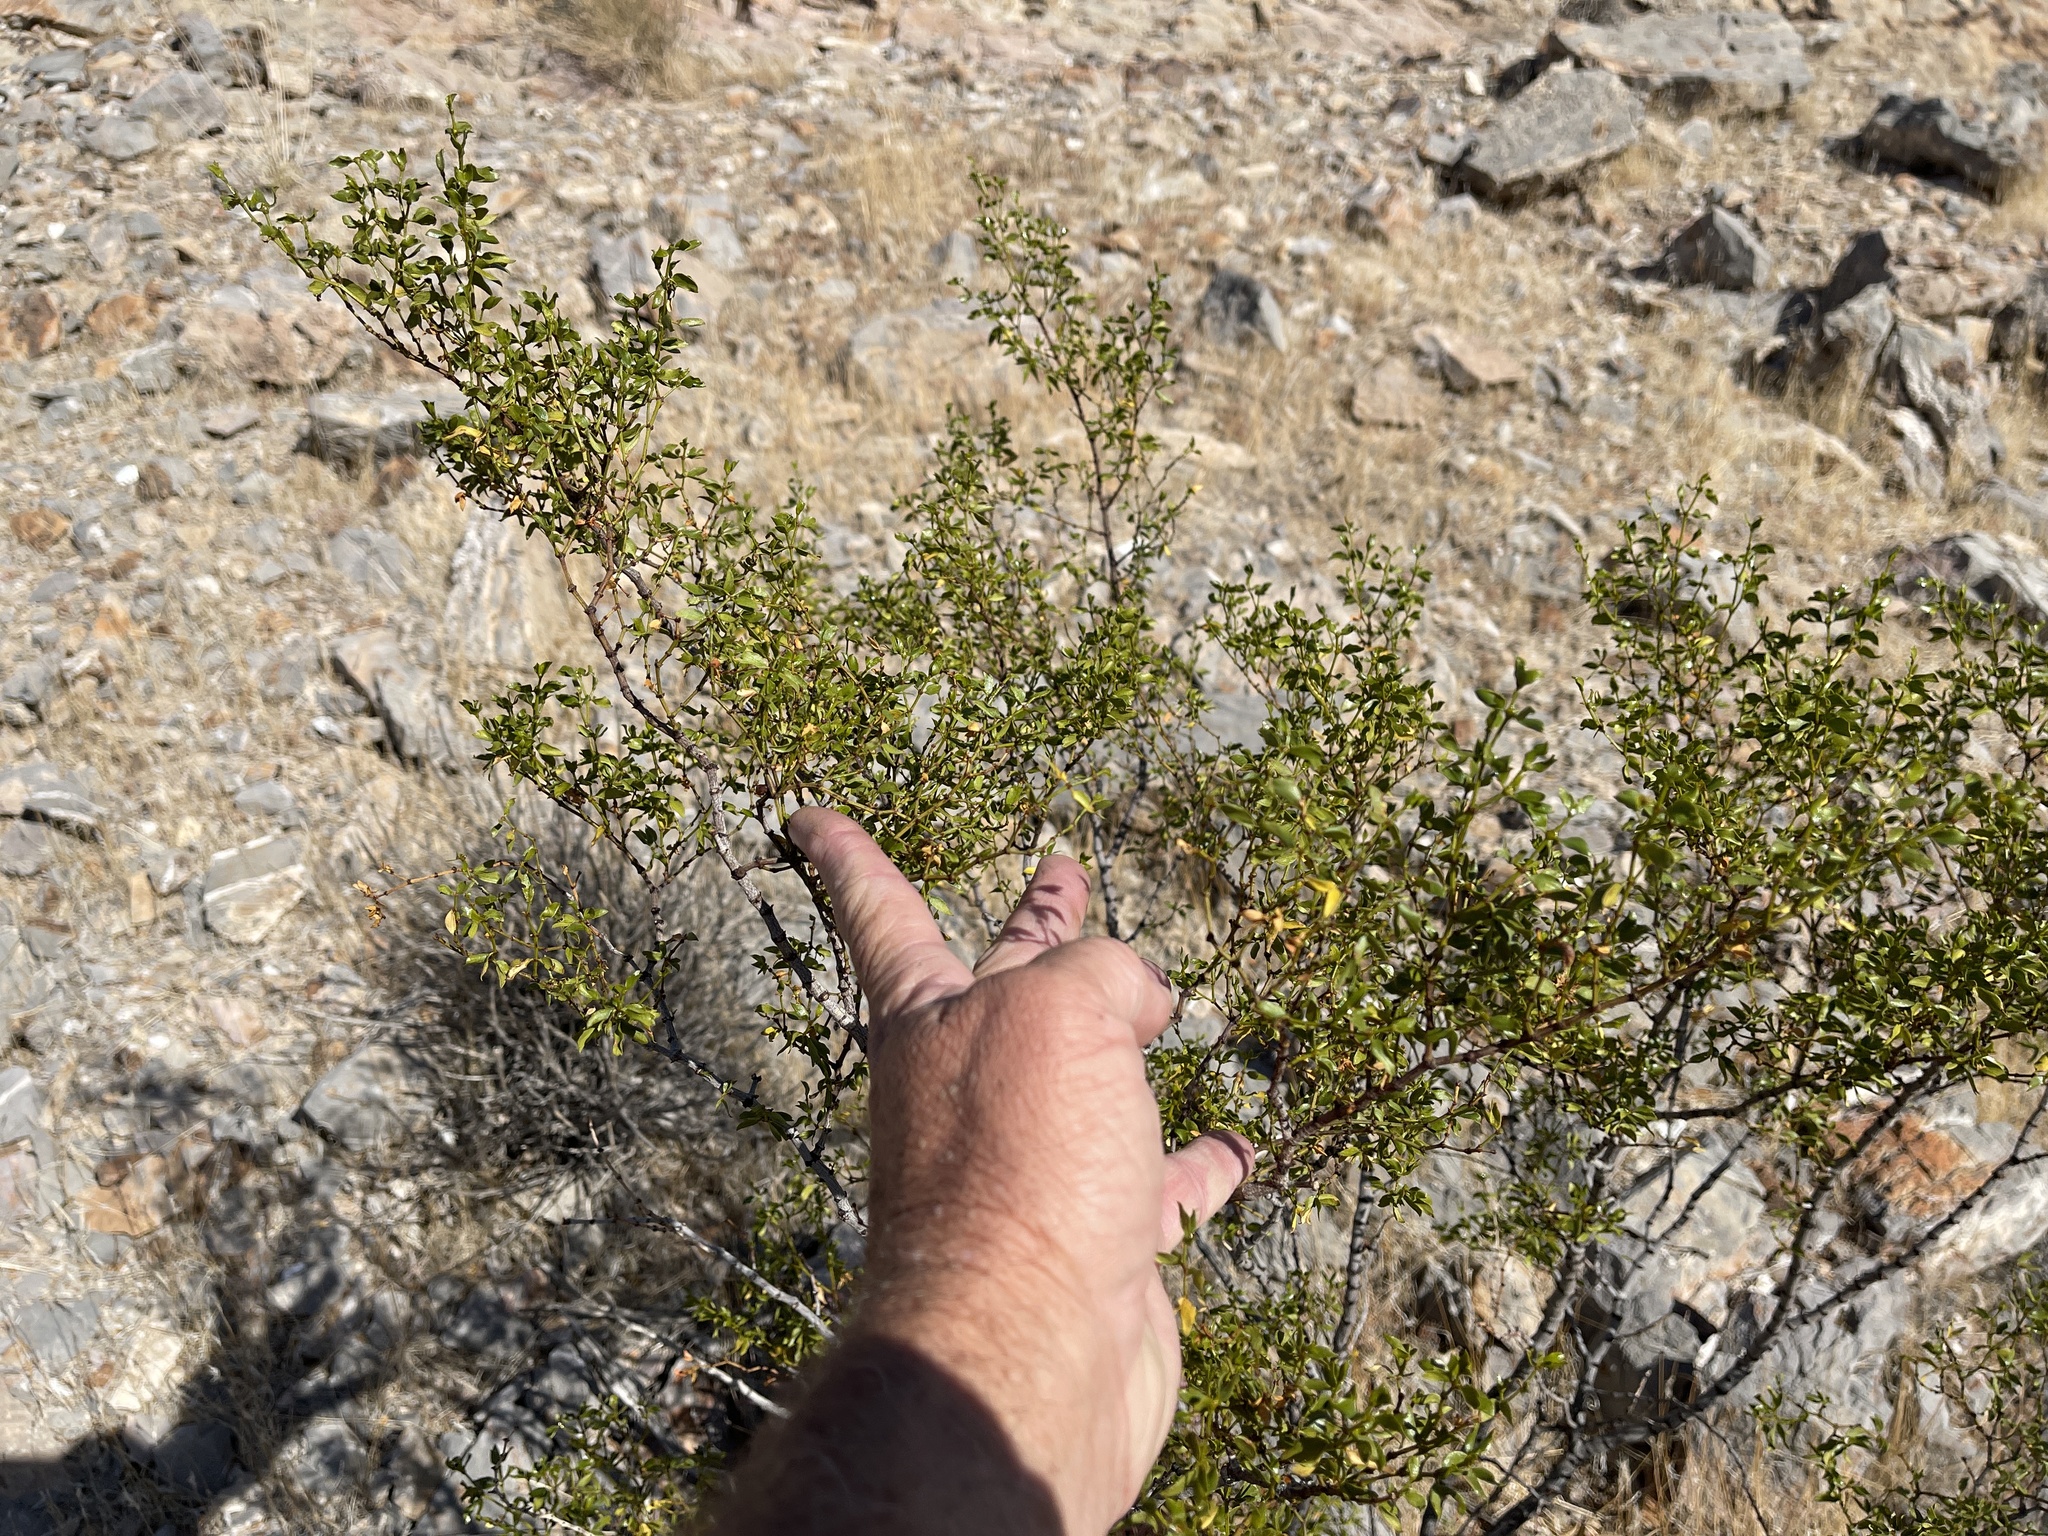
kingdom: Plantae
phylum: Tracheophyta
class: Magnoliopsida
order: Zygophyllales
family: Zygophyllaceae
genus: Larrea
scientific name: Larrea tridentata
